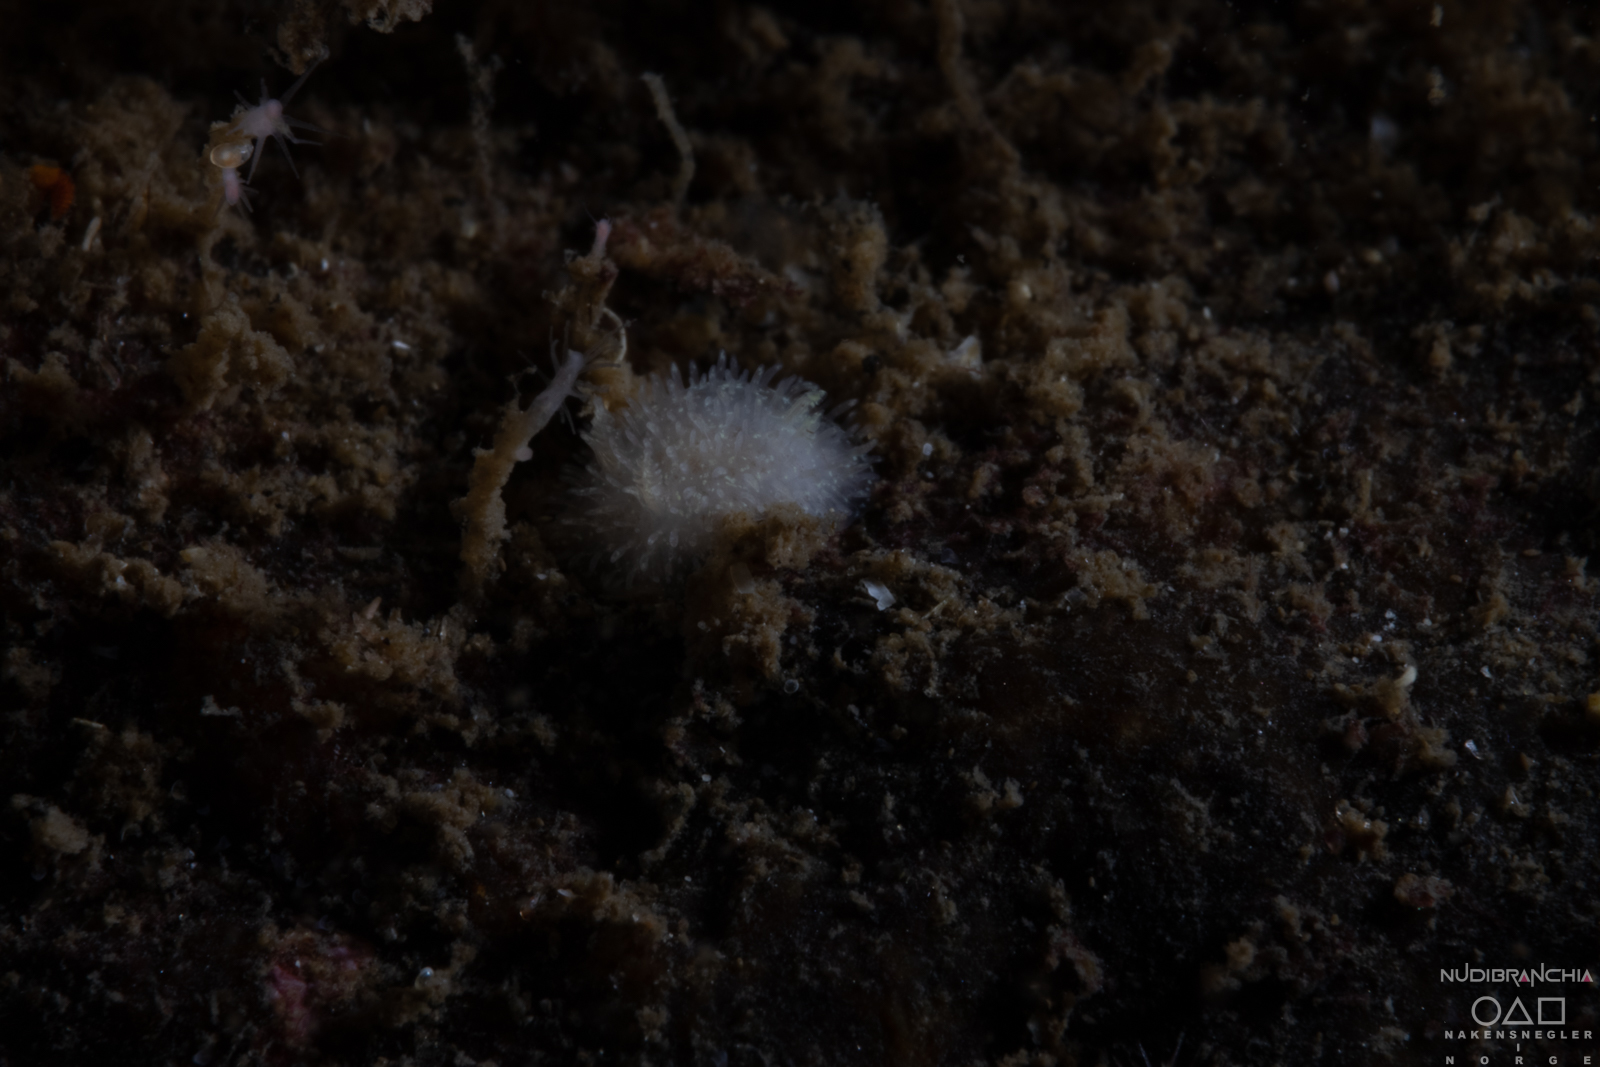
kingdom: Animalia
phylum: Mollusca
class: Gastropoda
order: Nudibranchia
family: Onchidorididae
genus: Acanthodoris
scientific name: Acanthodoris pilosa
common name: Hairy spiny doris
